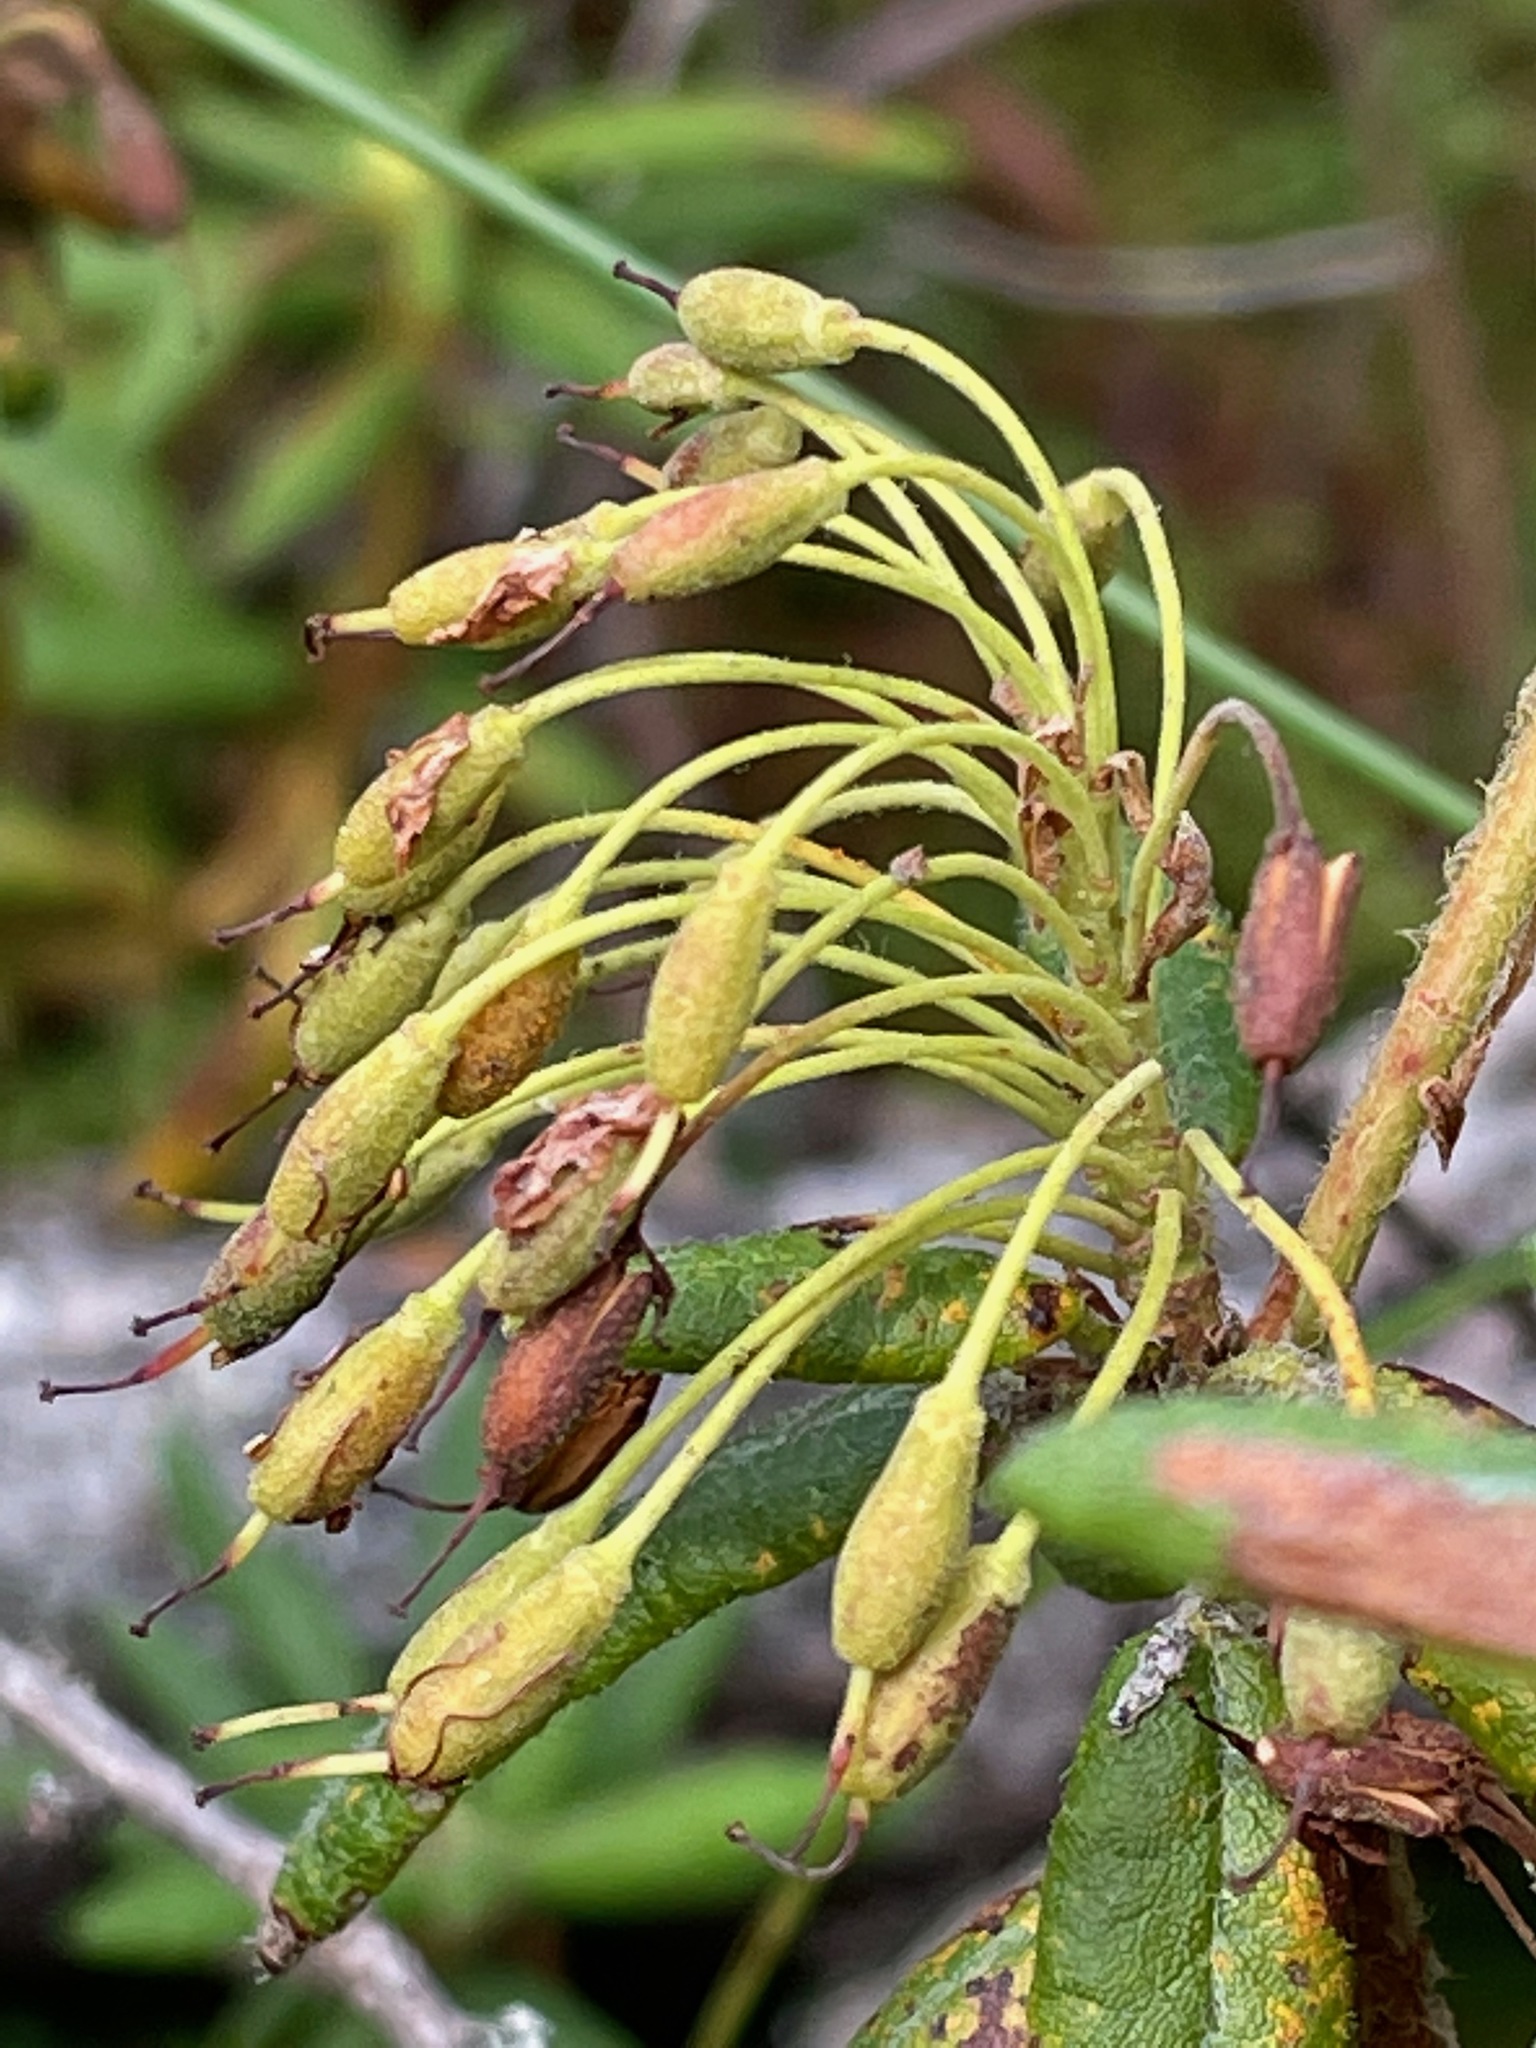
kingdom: Plantae
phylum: Tracheophyta
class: Magnoliopsida
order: Ericales
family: Ericaceae
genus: Rhododendron
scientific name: Rhododendron groenlandicum
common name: Bog labrador tea
